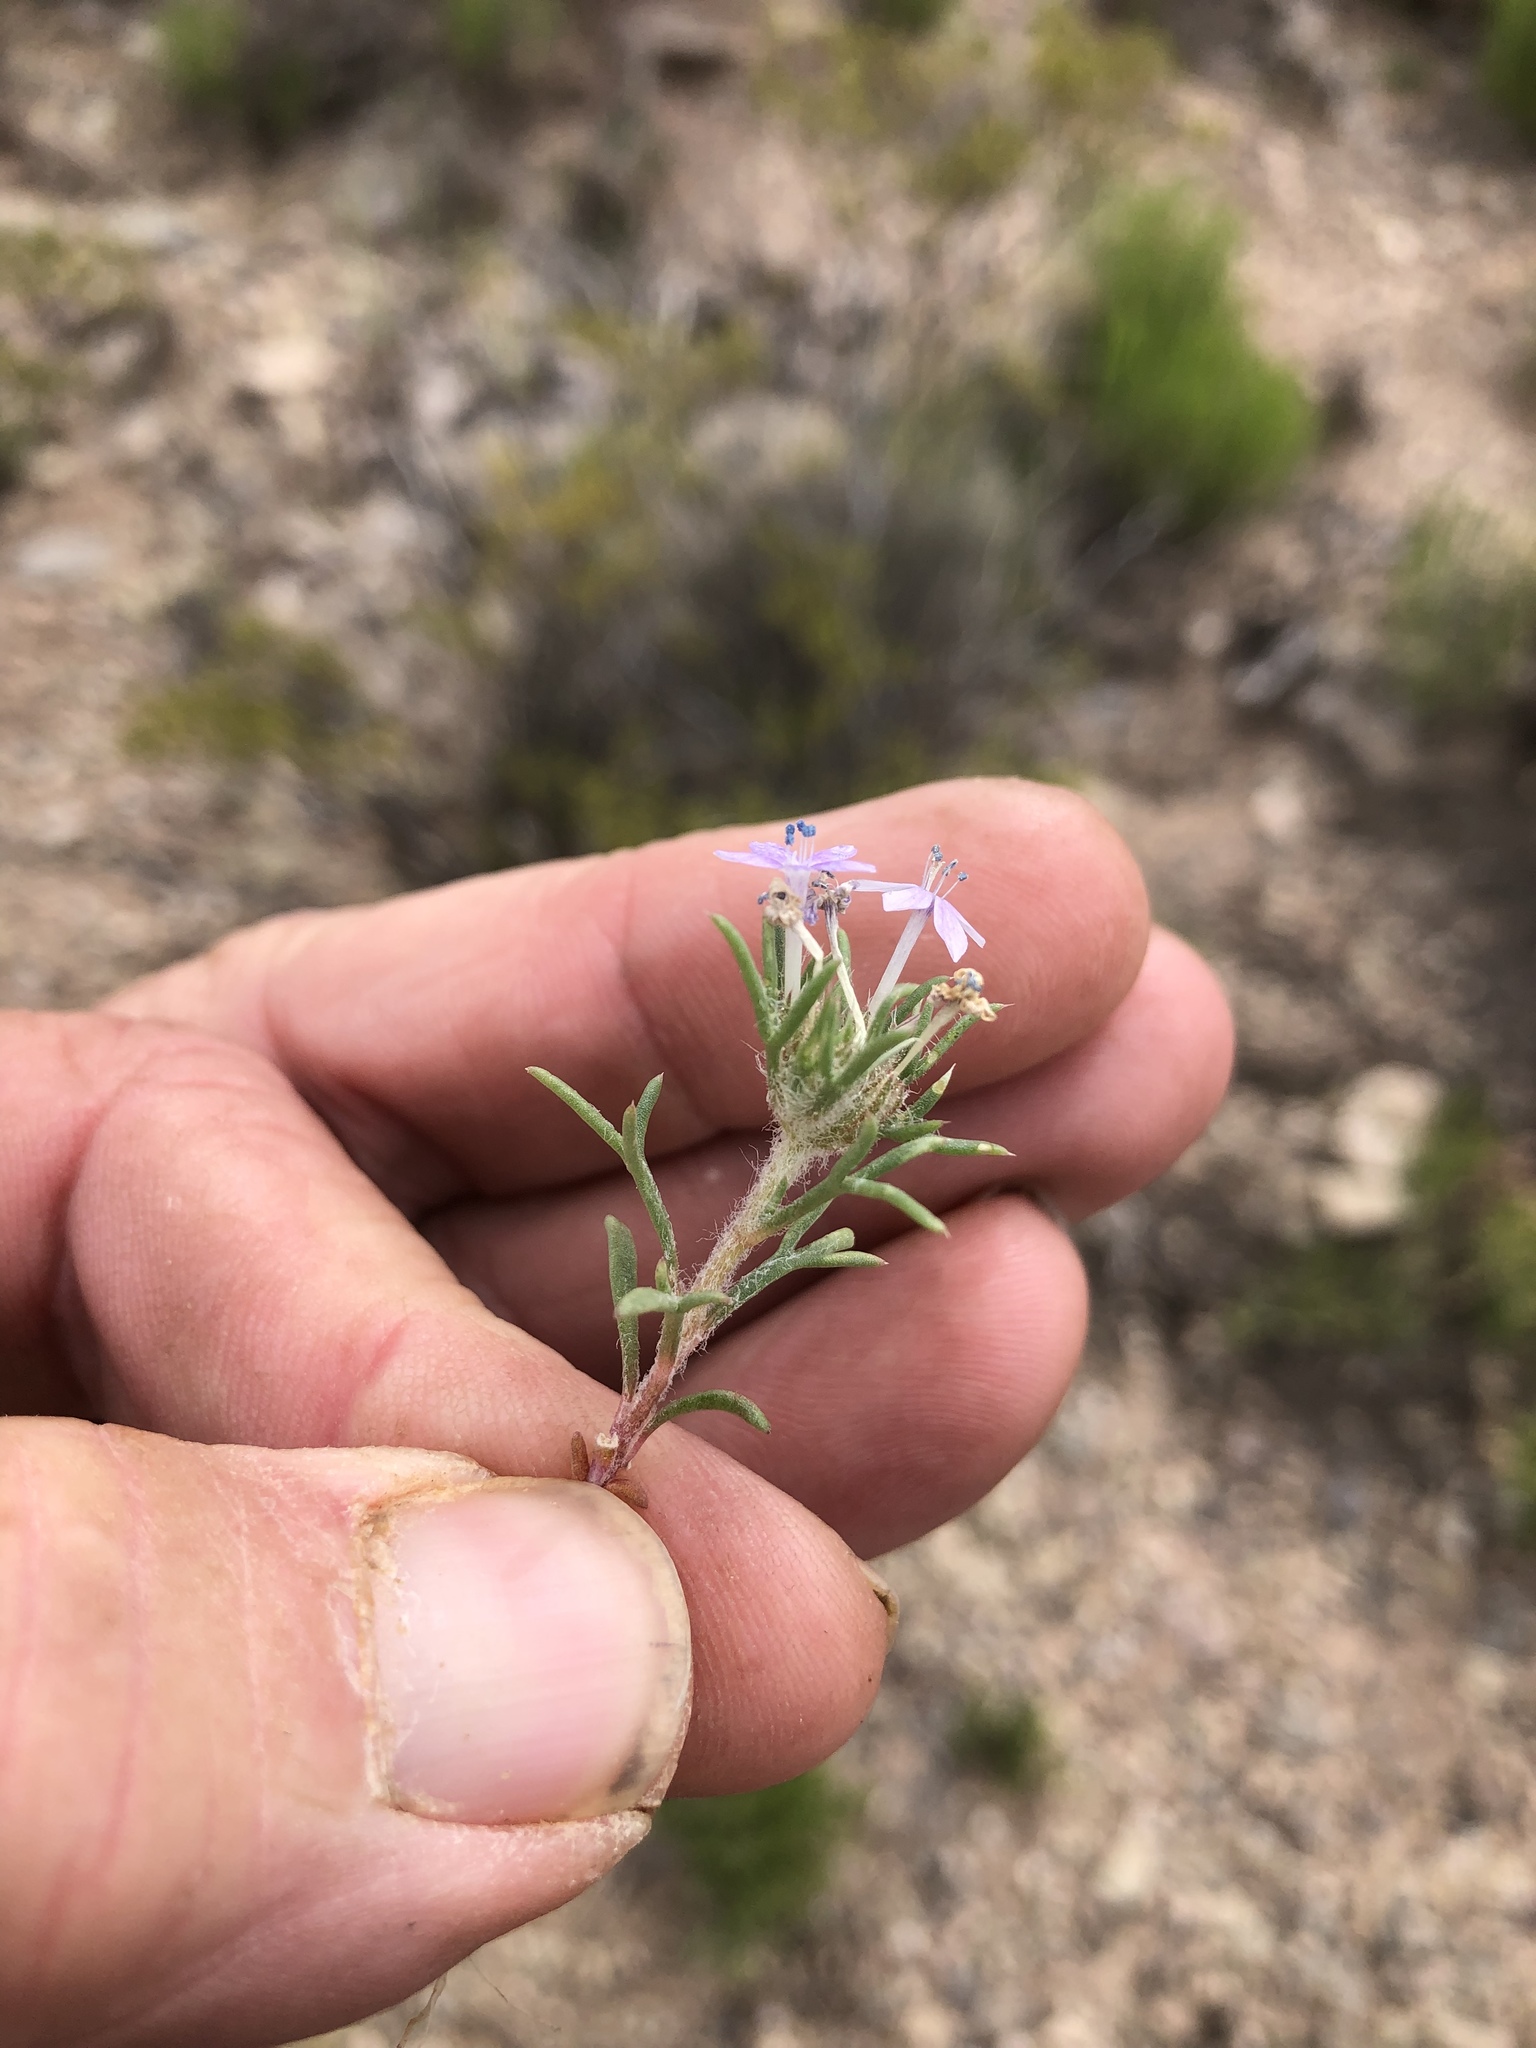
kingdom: Plantae
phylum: Tracheophyta
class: Magnoliopsida
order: Ericales
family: Polemoniaceae
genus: Ipomopsis
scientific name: Ipomopsis pumila
